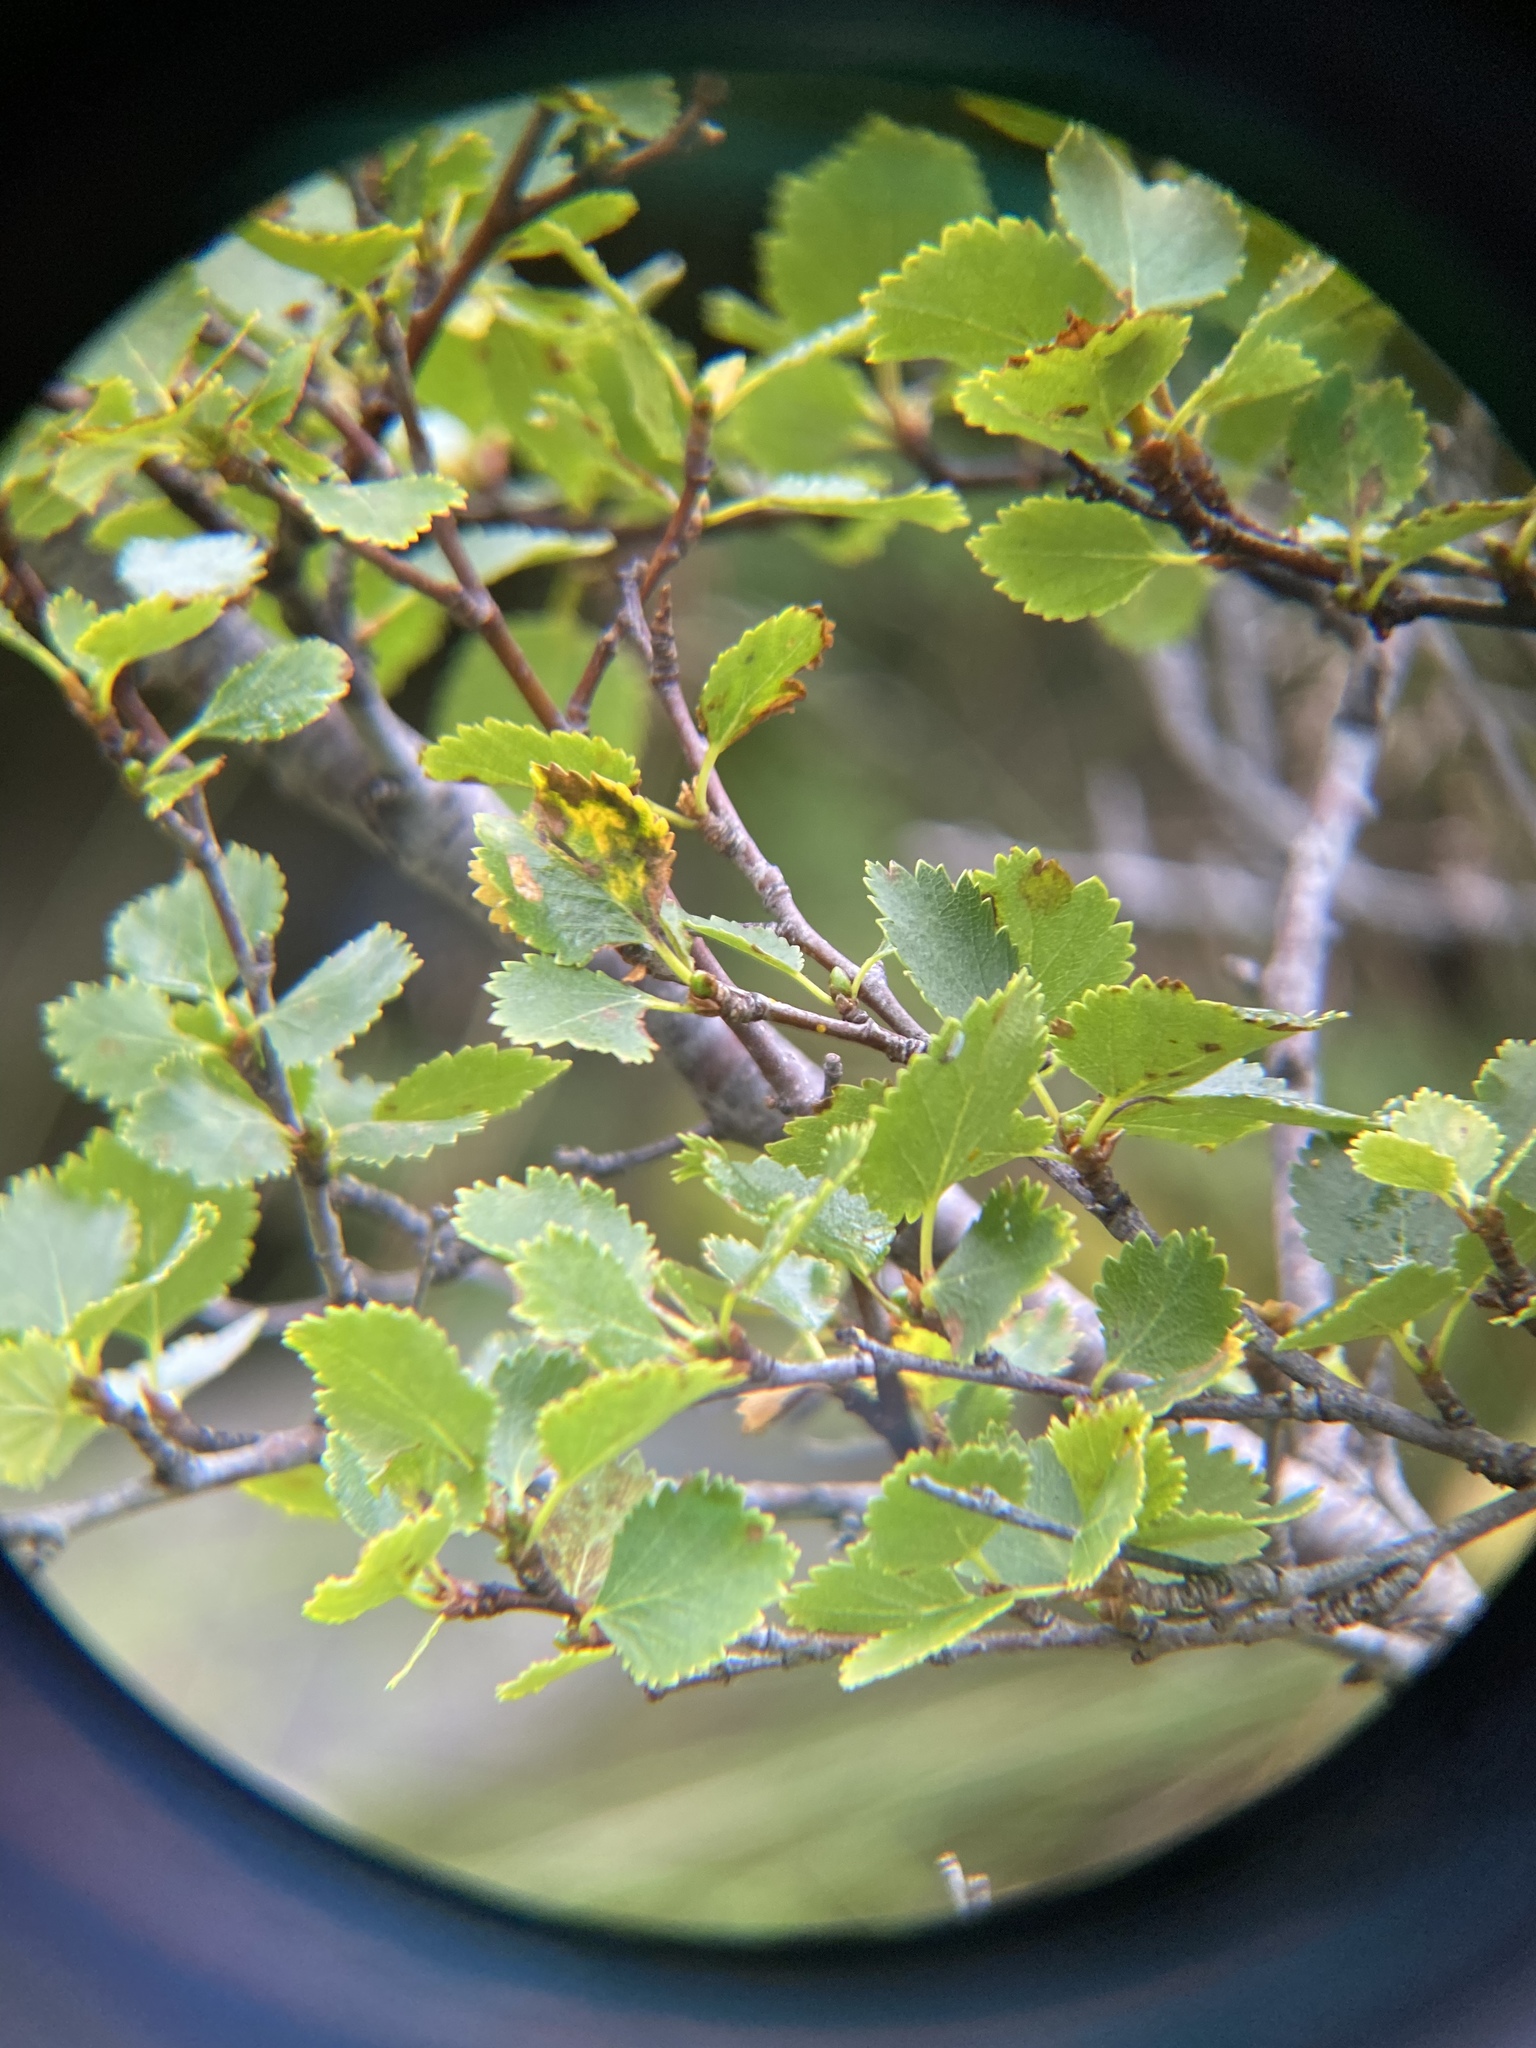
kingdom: Plantae
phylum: Tracheophyta
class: Magnoliopsida
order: Fagales
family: Betulaceae
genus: Betula
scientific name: Betula pubescens
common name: Downy birch
